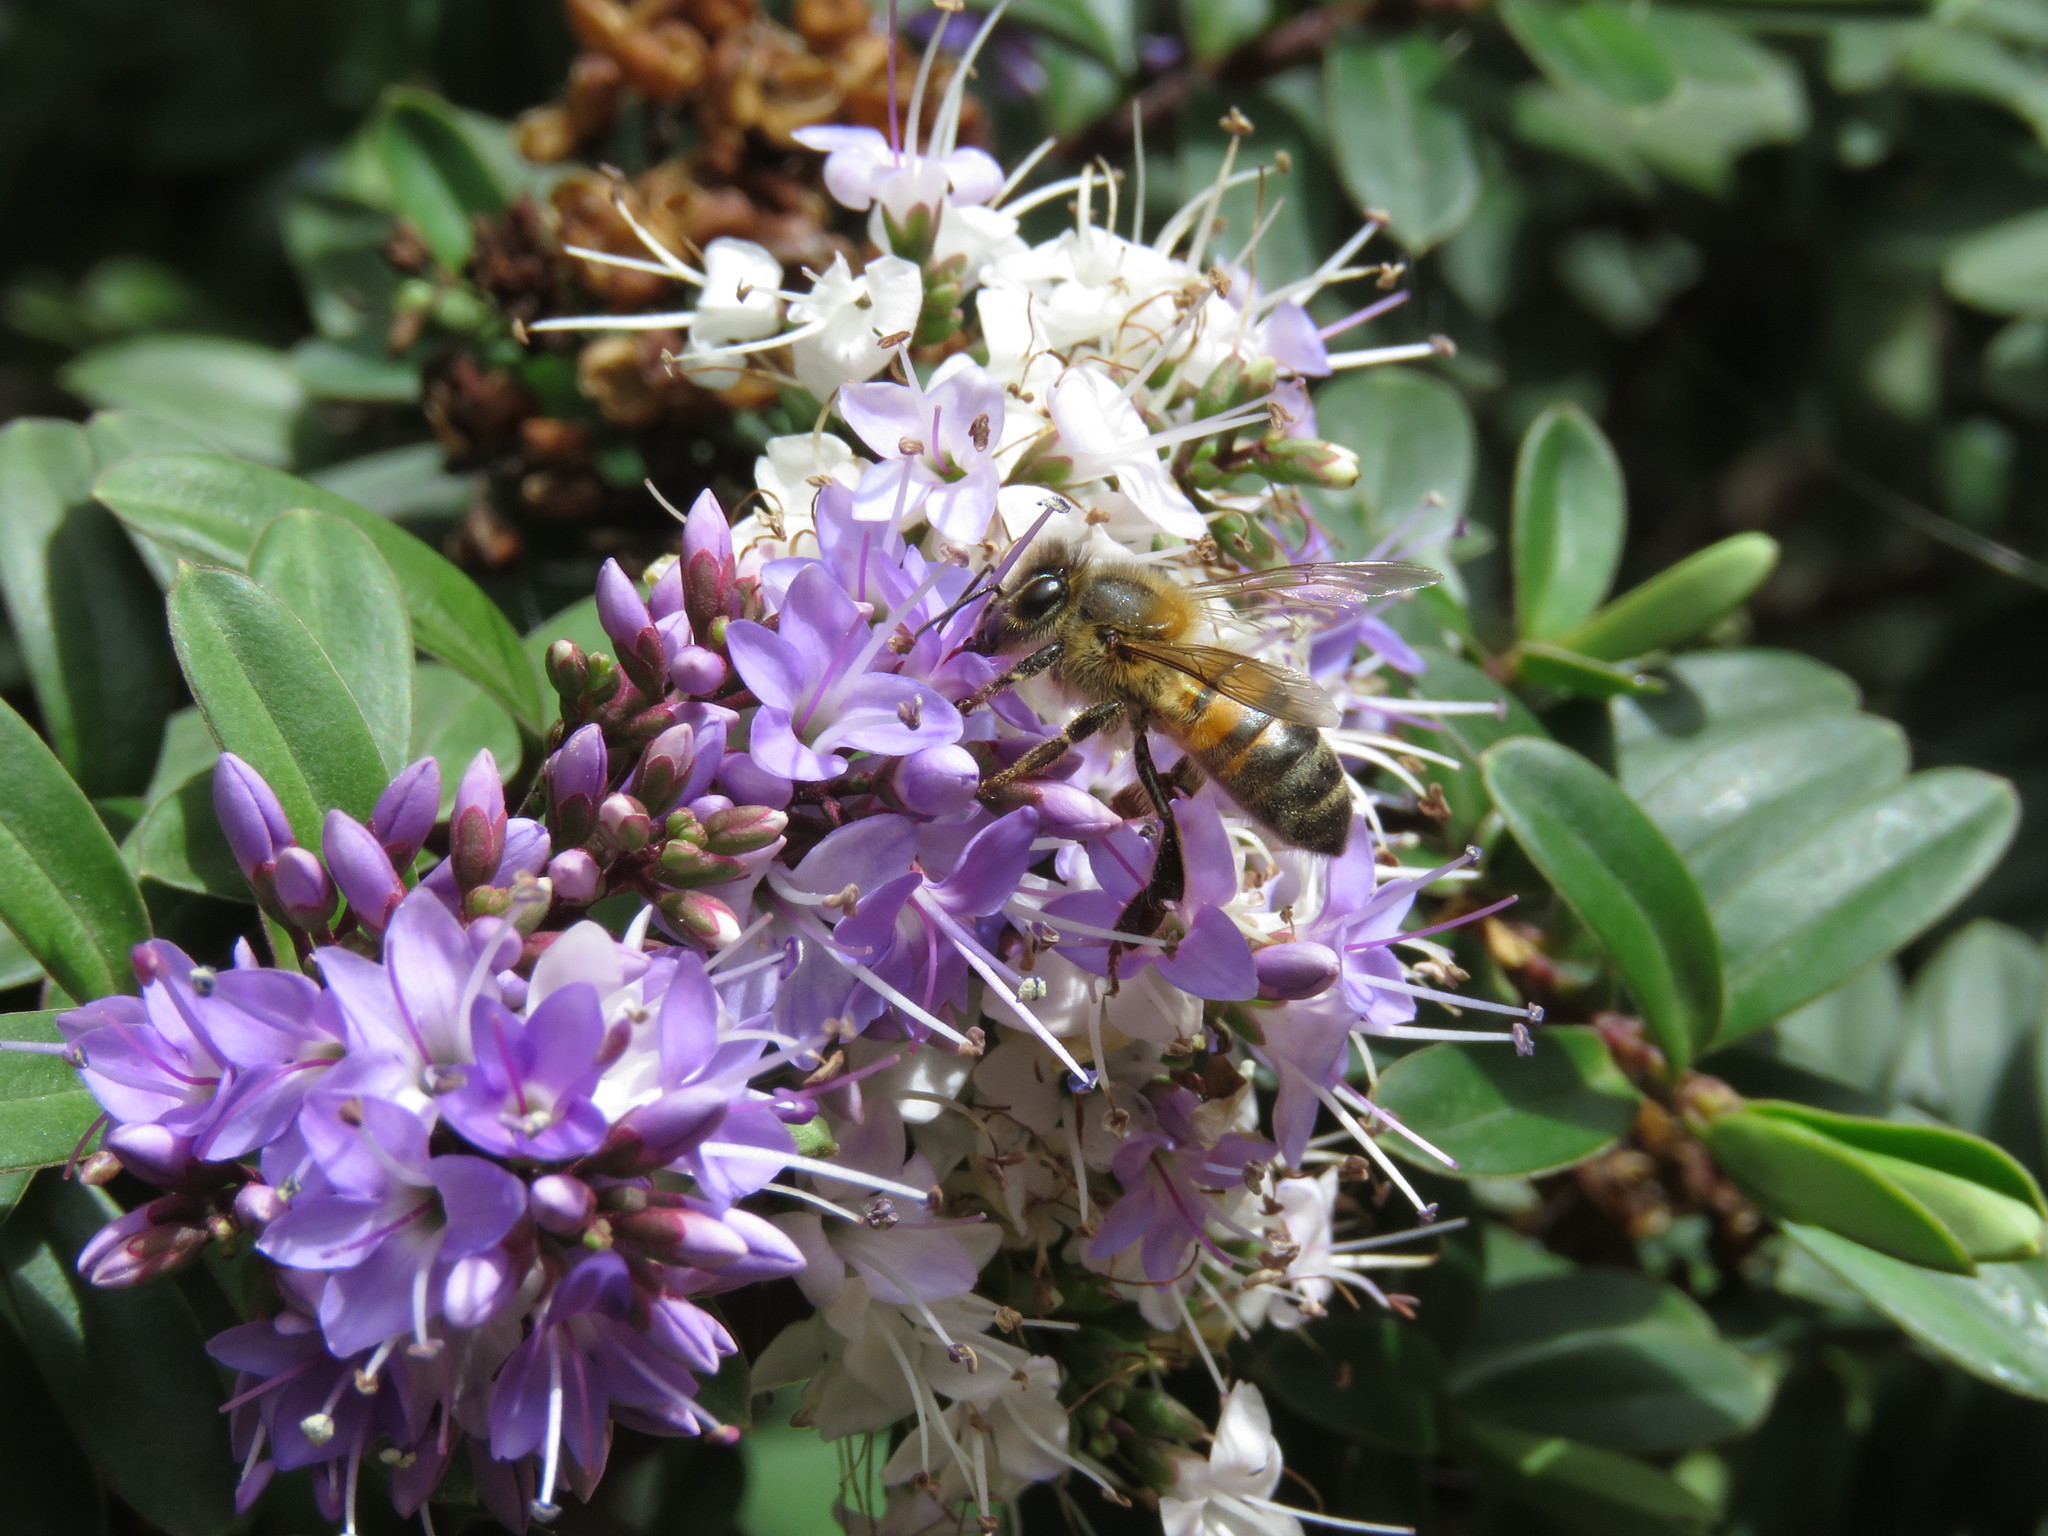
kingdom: Animalia
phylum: Arthropoda
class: Insecta
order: Hymenoptera
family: Apidae
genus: Apis
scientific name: Apis mellifera
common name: Honey bee
